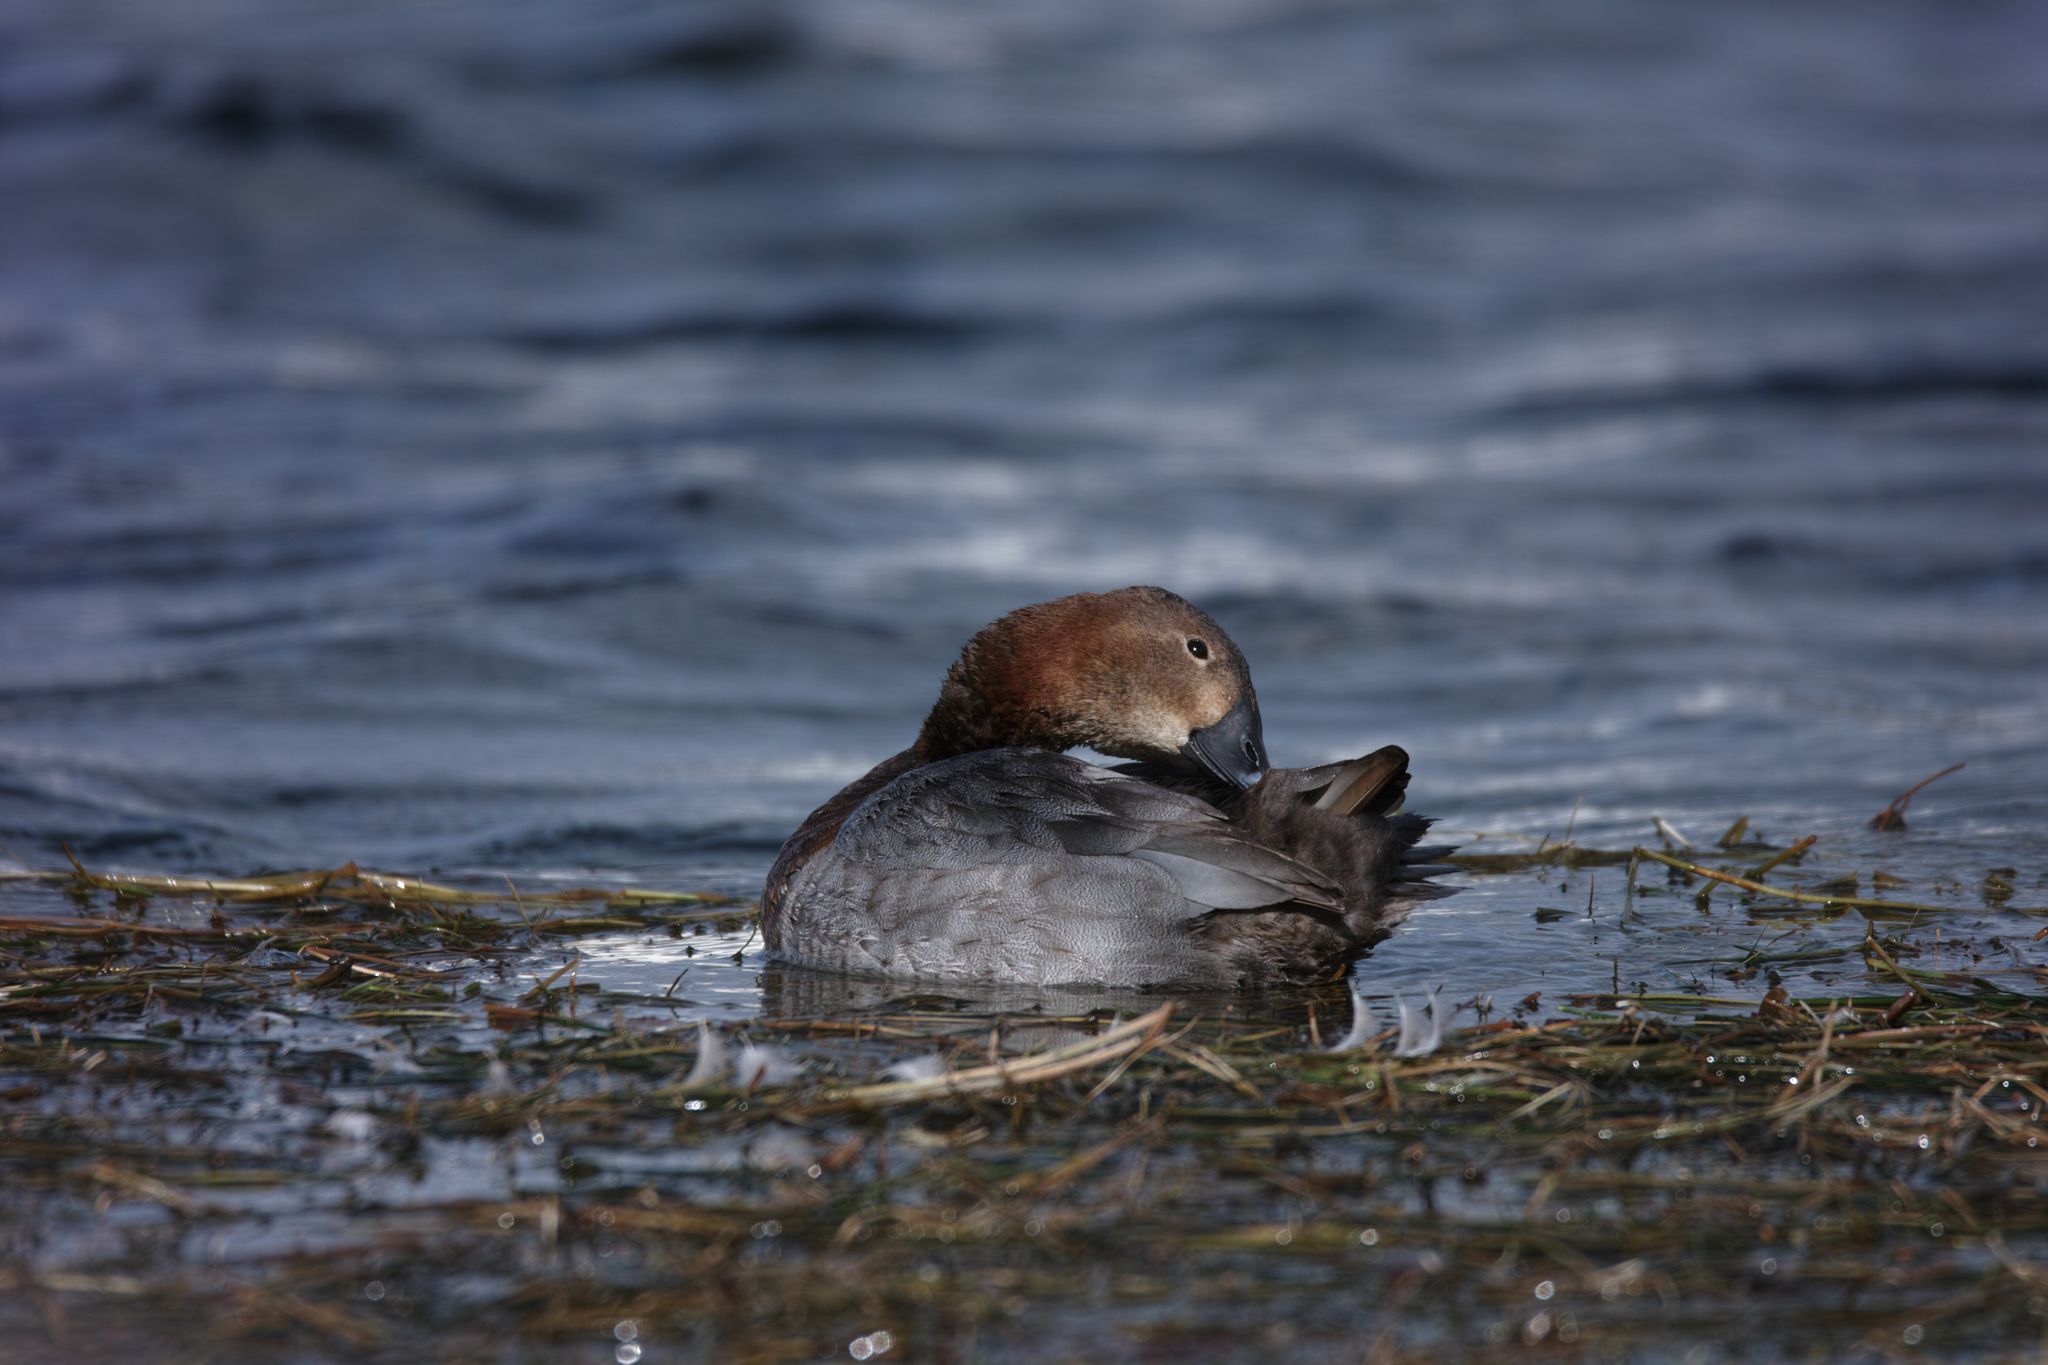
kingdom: Animalia
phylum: Chordata
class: Aves
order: Anseriformes
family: Anatidae
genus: Aythya
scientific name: Aythya ferina
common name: Common pochard
